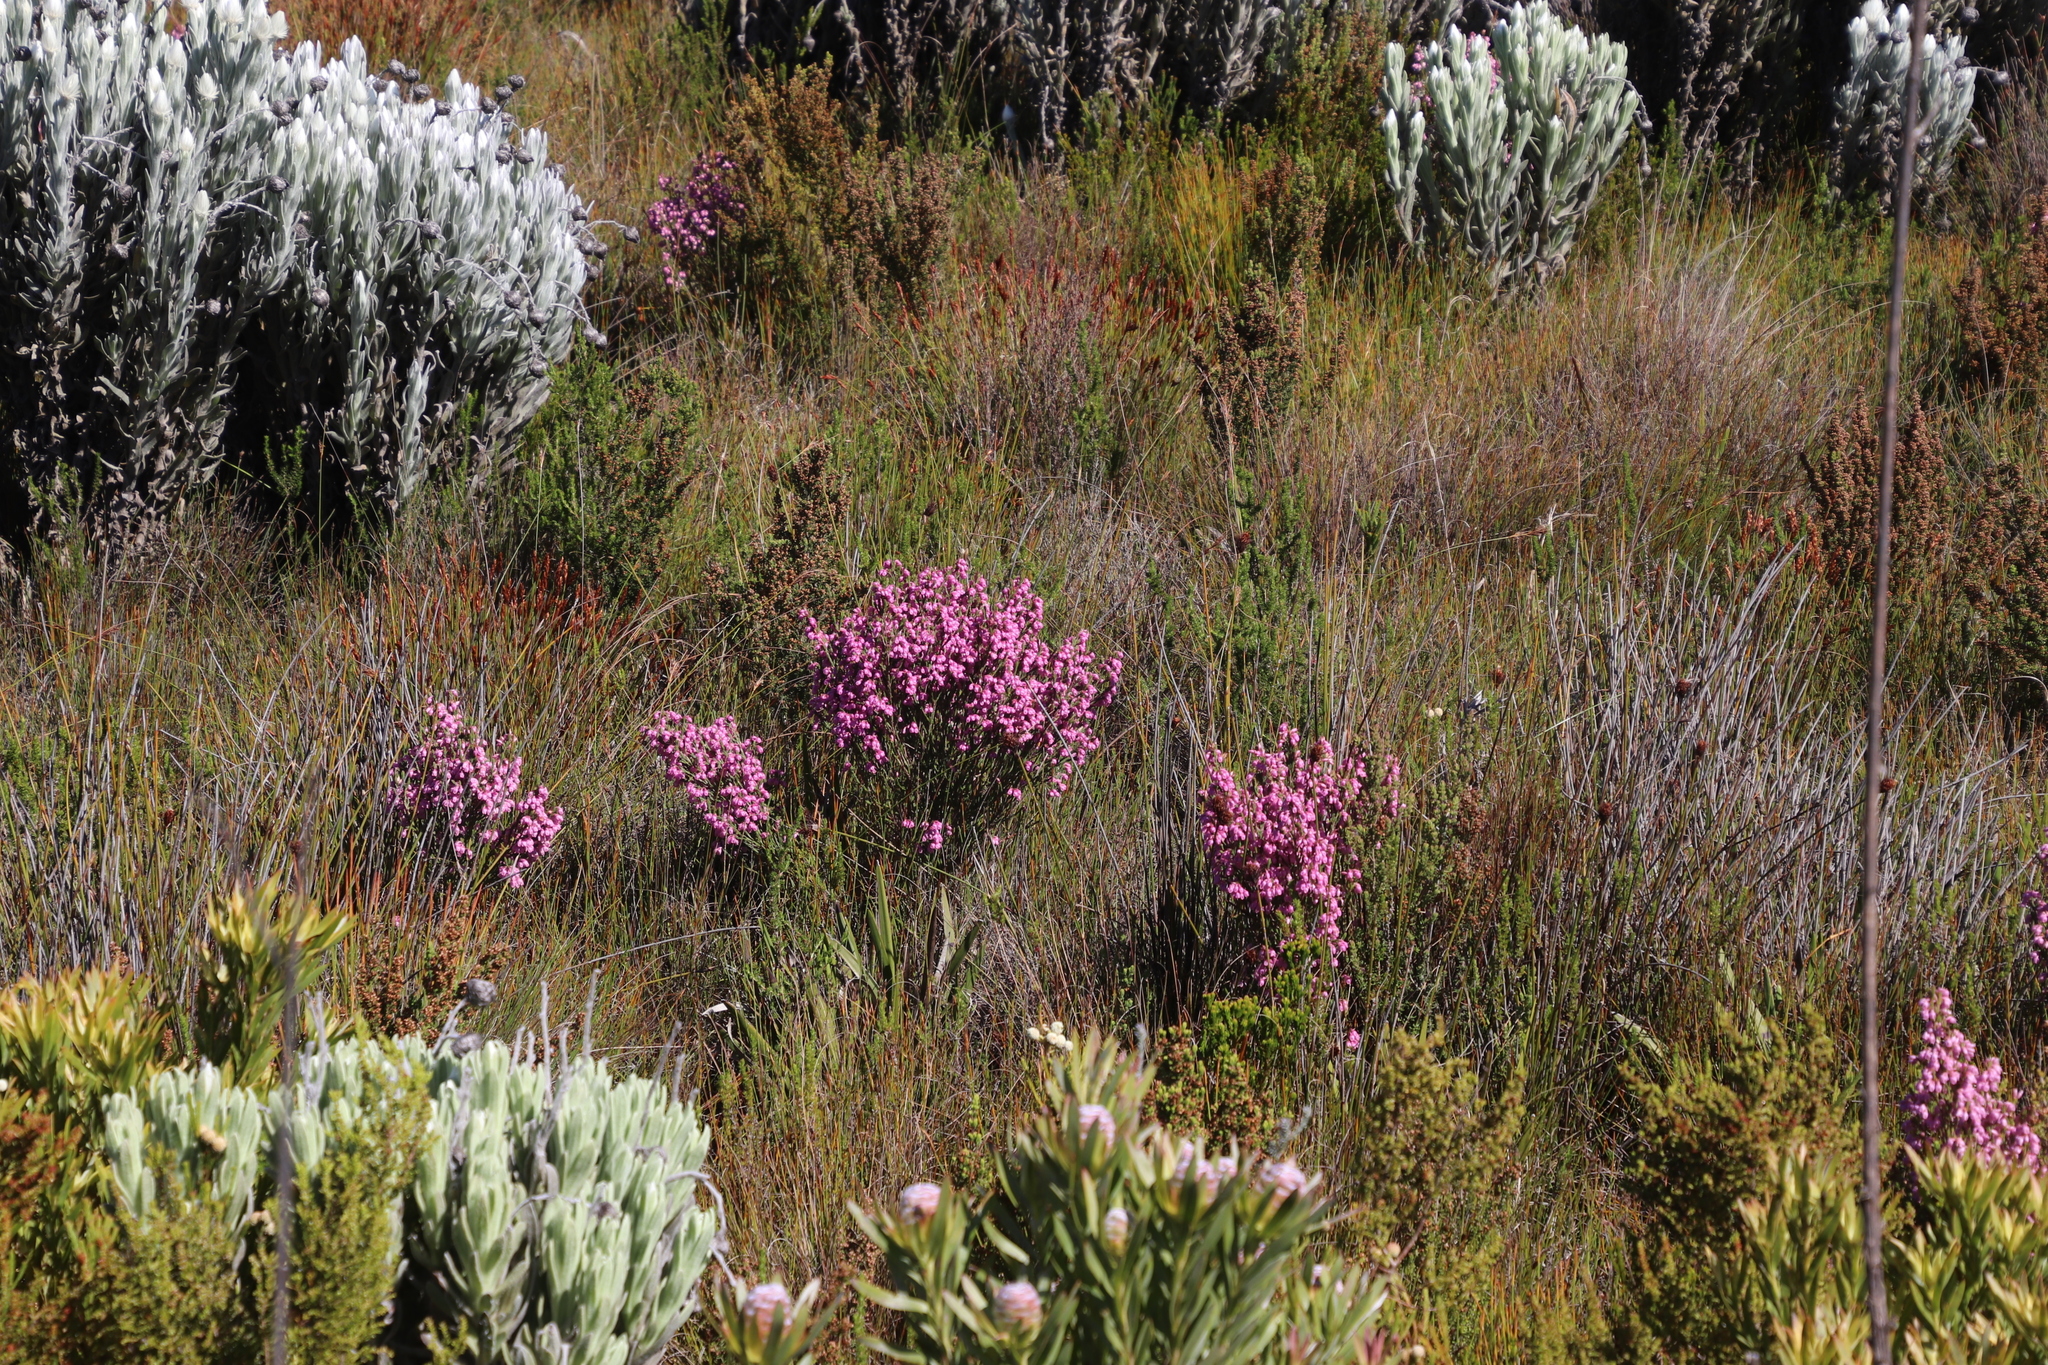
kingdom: Plantae
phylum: Tracheophyta
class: Magnoliopsida
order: Ericales
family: Ericaceae
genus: Erica
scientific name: Erica palliiflora
